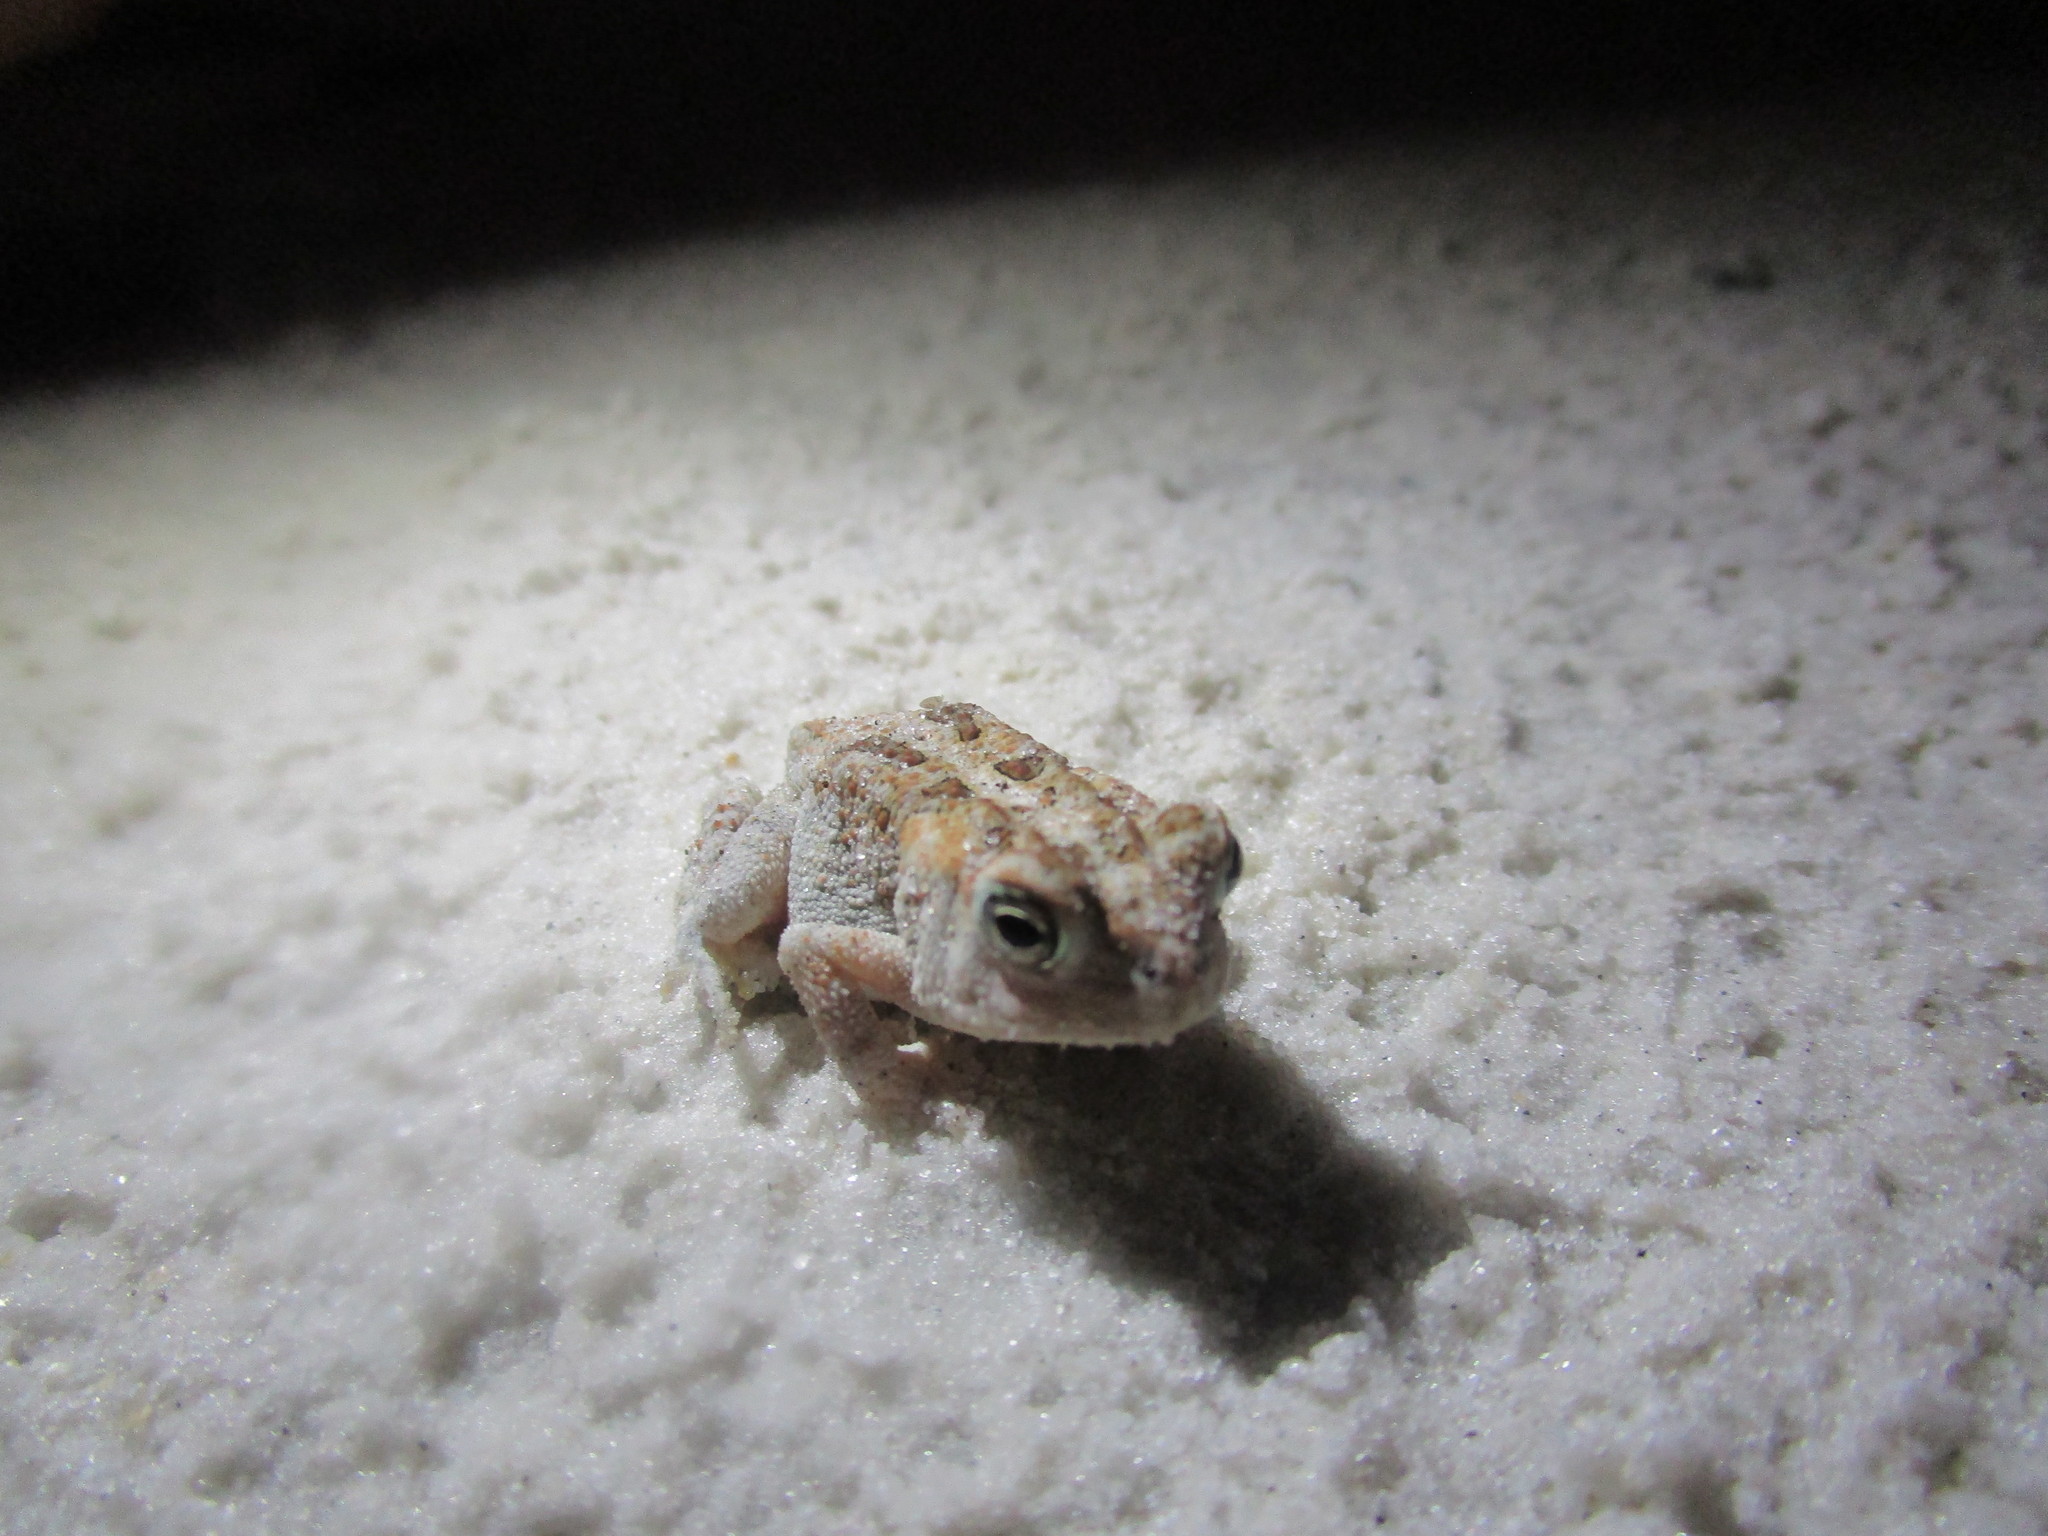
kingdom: Animalia
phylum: Chordata
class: Amphibia
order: Anura
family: Bufonidae
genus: Anaxyrus
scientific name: Anaxyrus terrestris
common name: Southern toad
